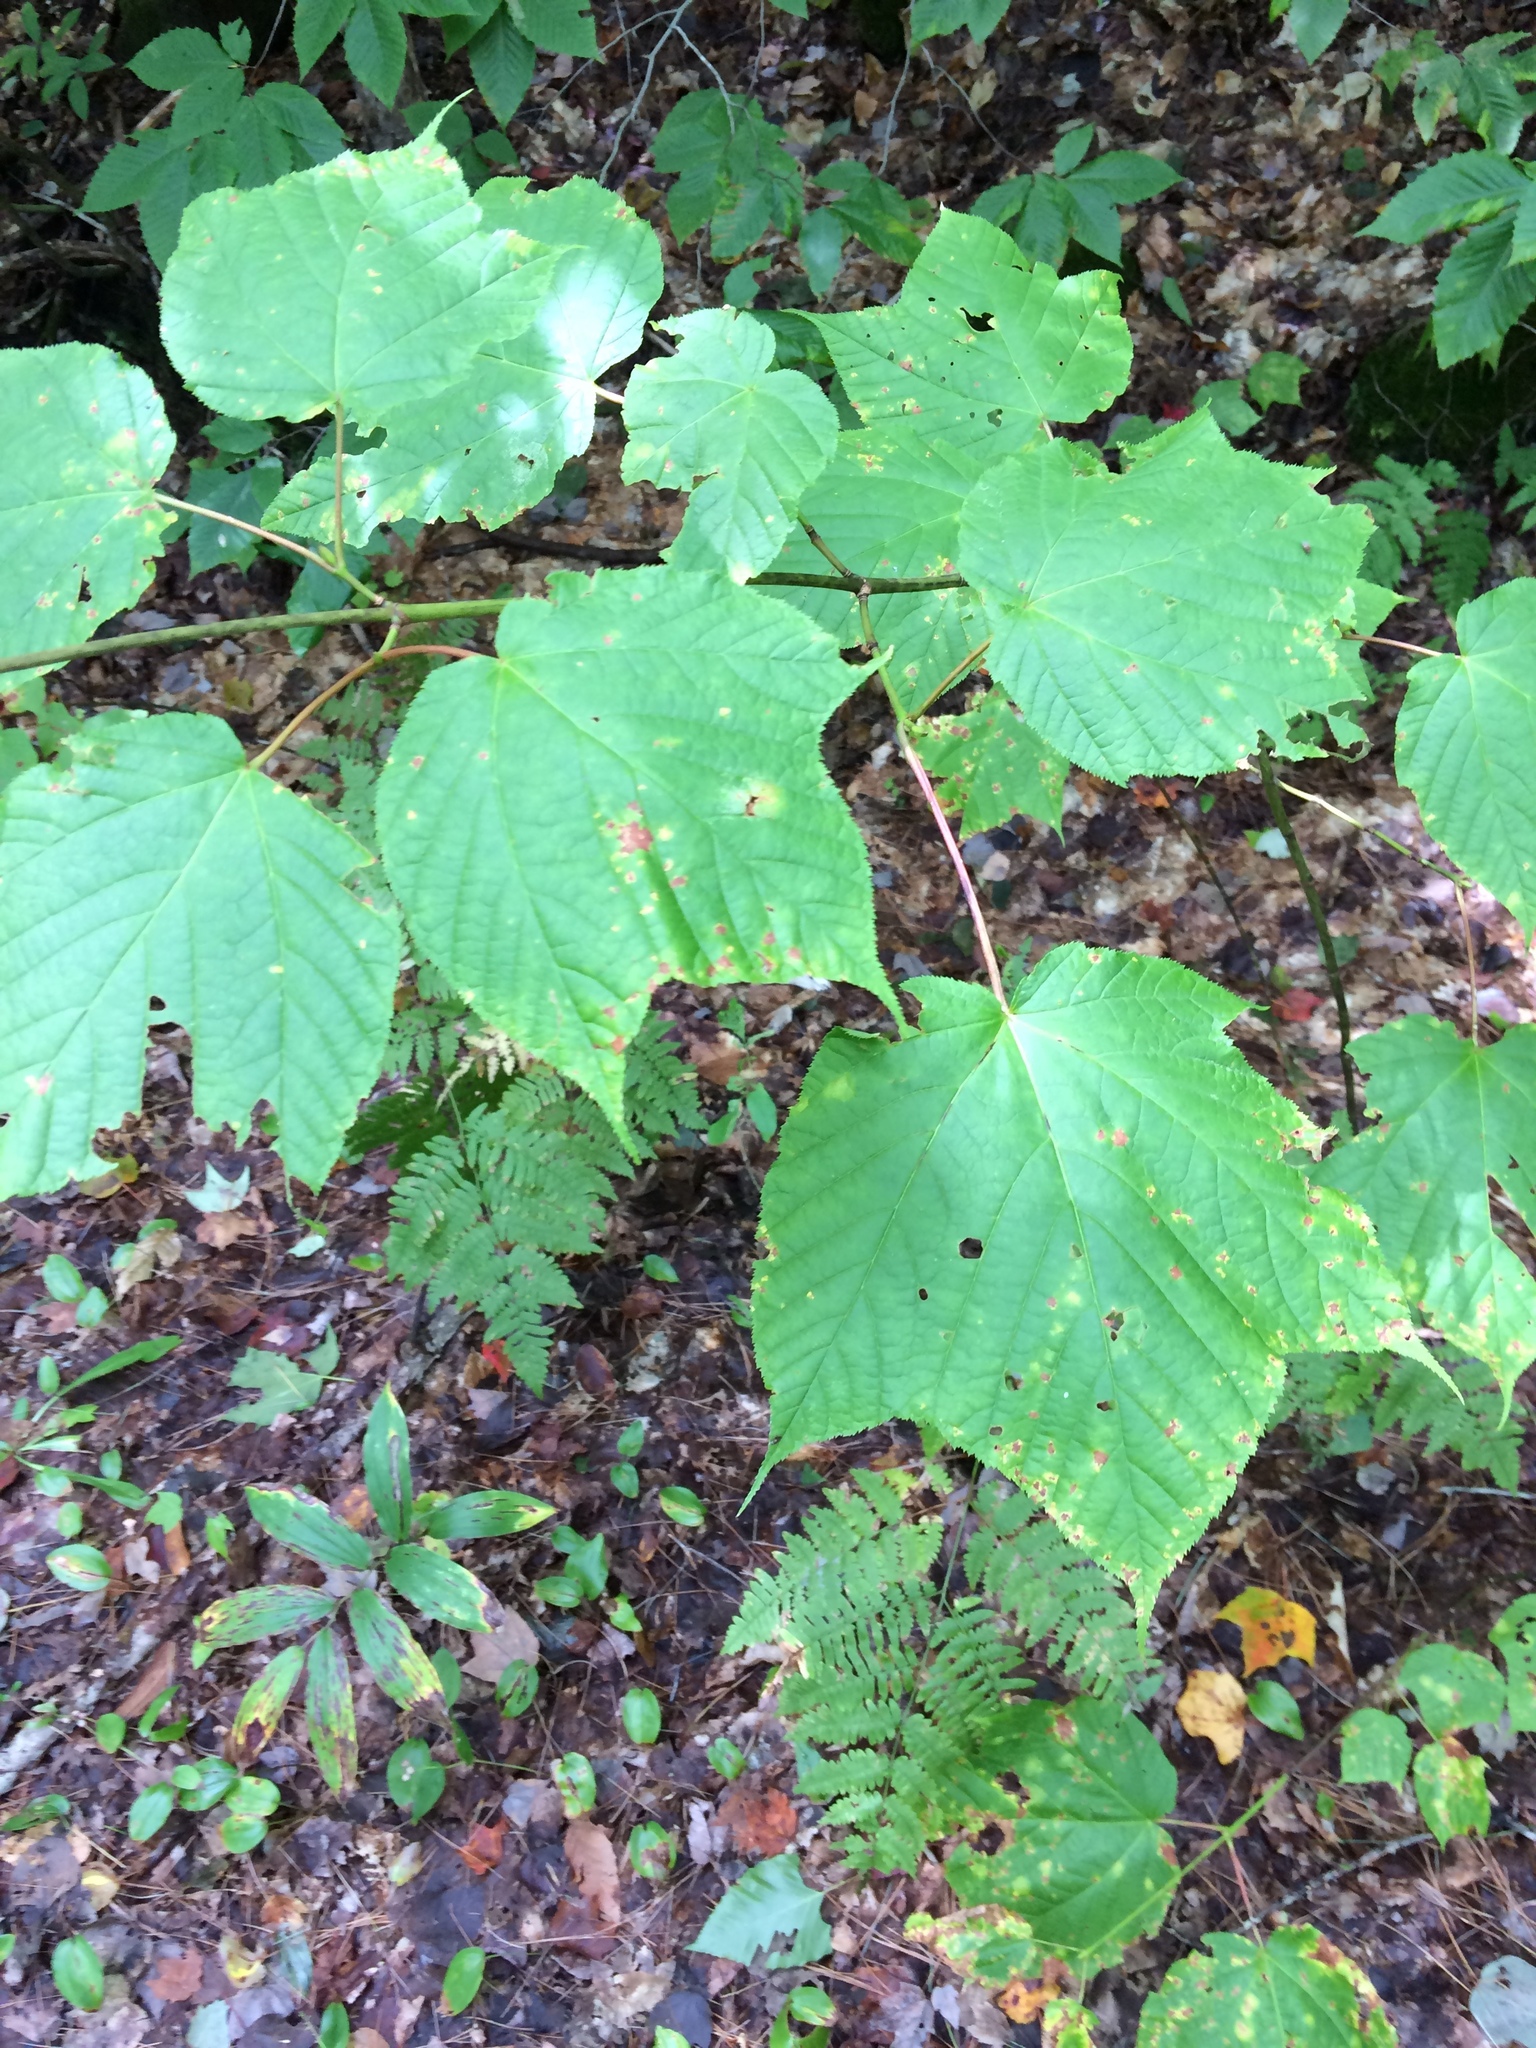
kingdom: Plantae
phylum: Tracheophyta
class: Magnoliopsida
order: Sapindales
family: Sapindaceae
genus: Acer
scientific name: Acer pensylvanicum
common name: Moosewood
